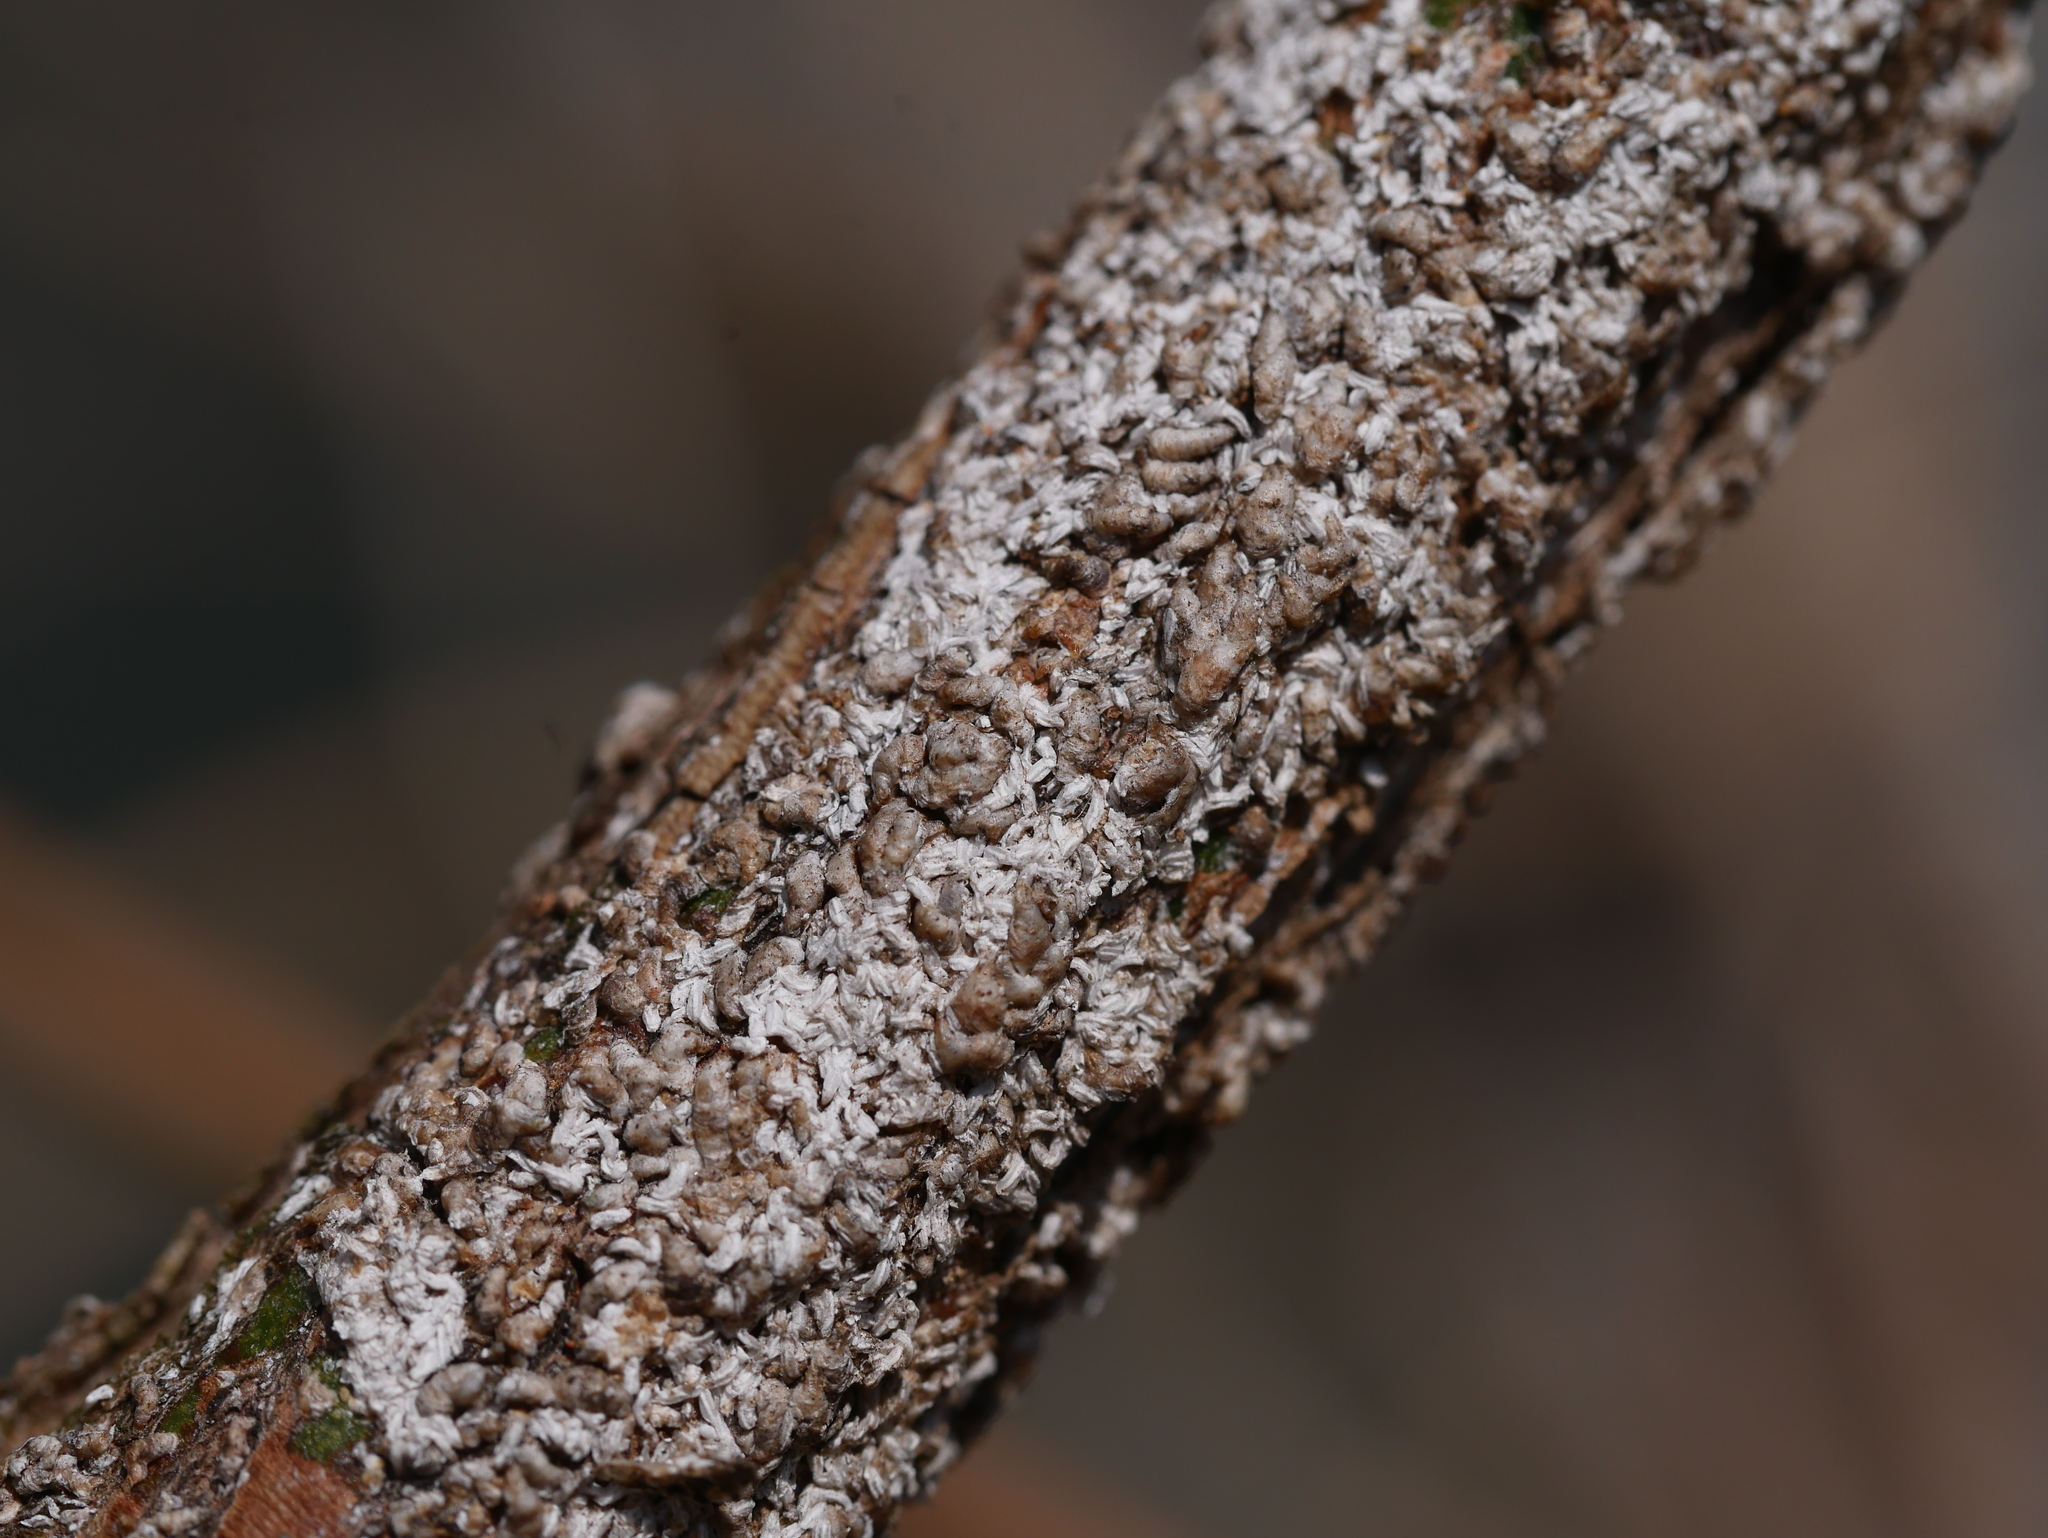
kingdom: Animalia
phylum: Arthropoda
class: Insecta
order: Hemiptera
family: Diaspididae
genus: Unaspis
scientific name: Unaspis euonymi
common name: Euonymus scale
